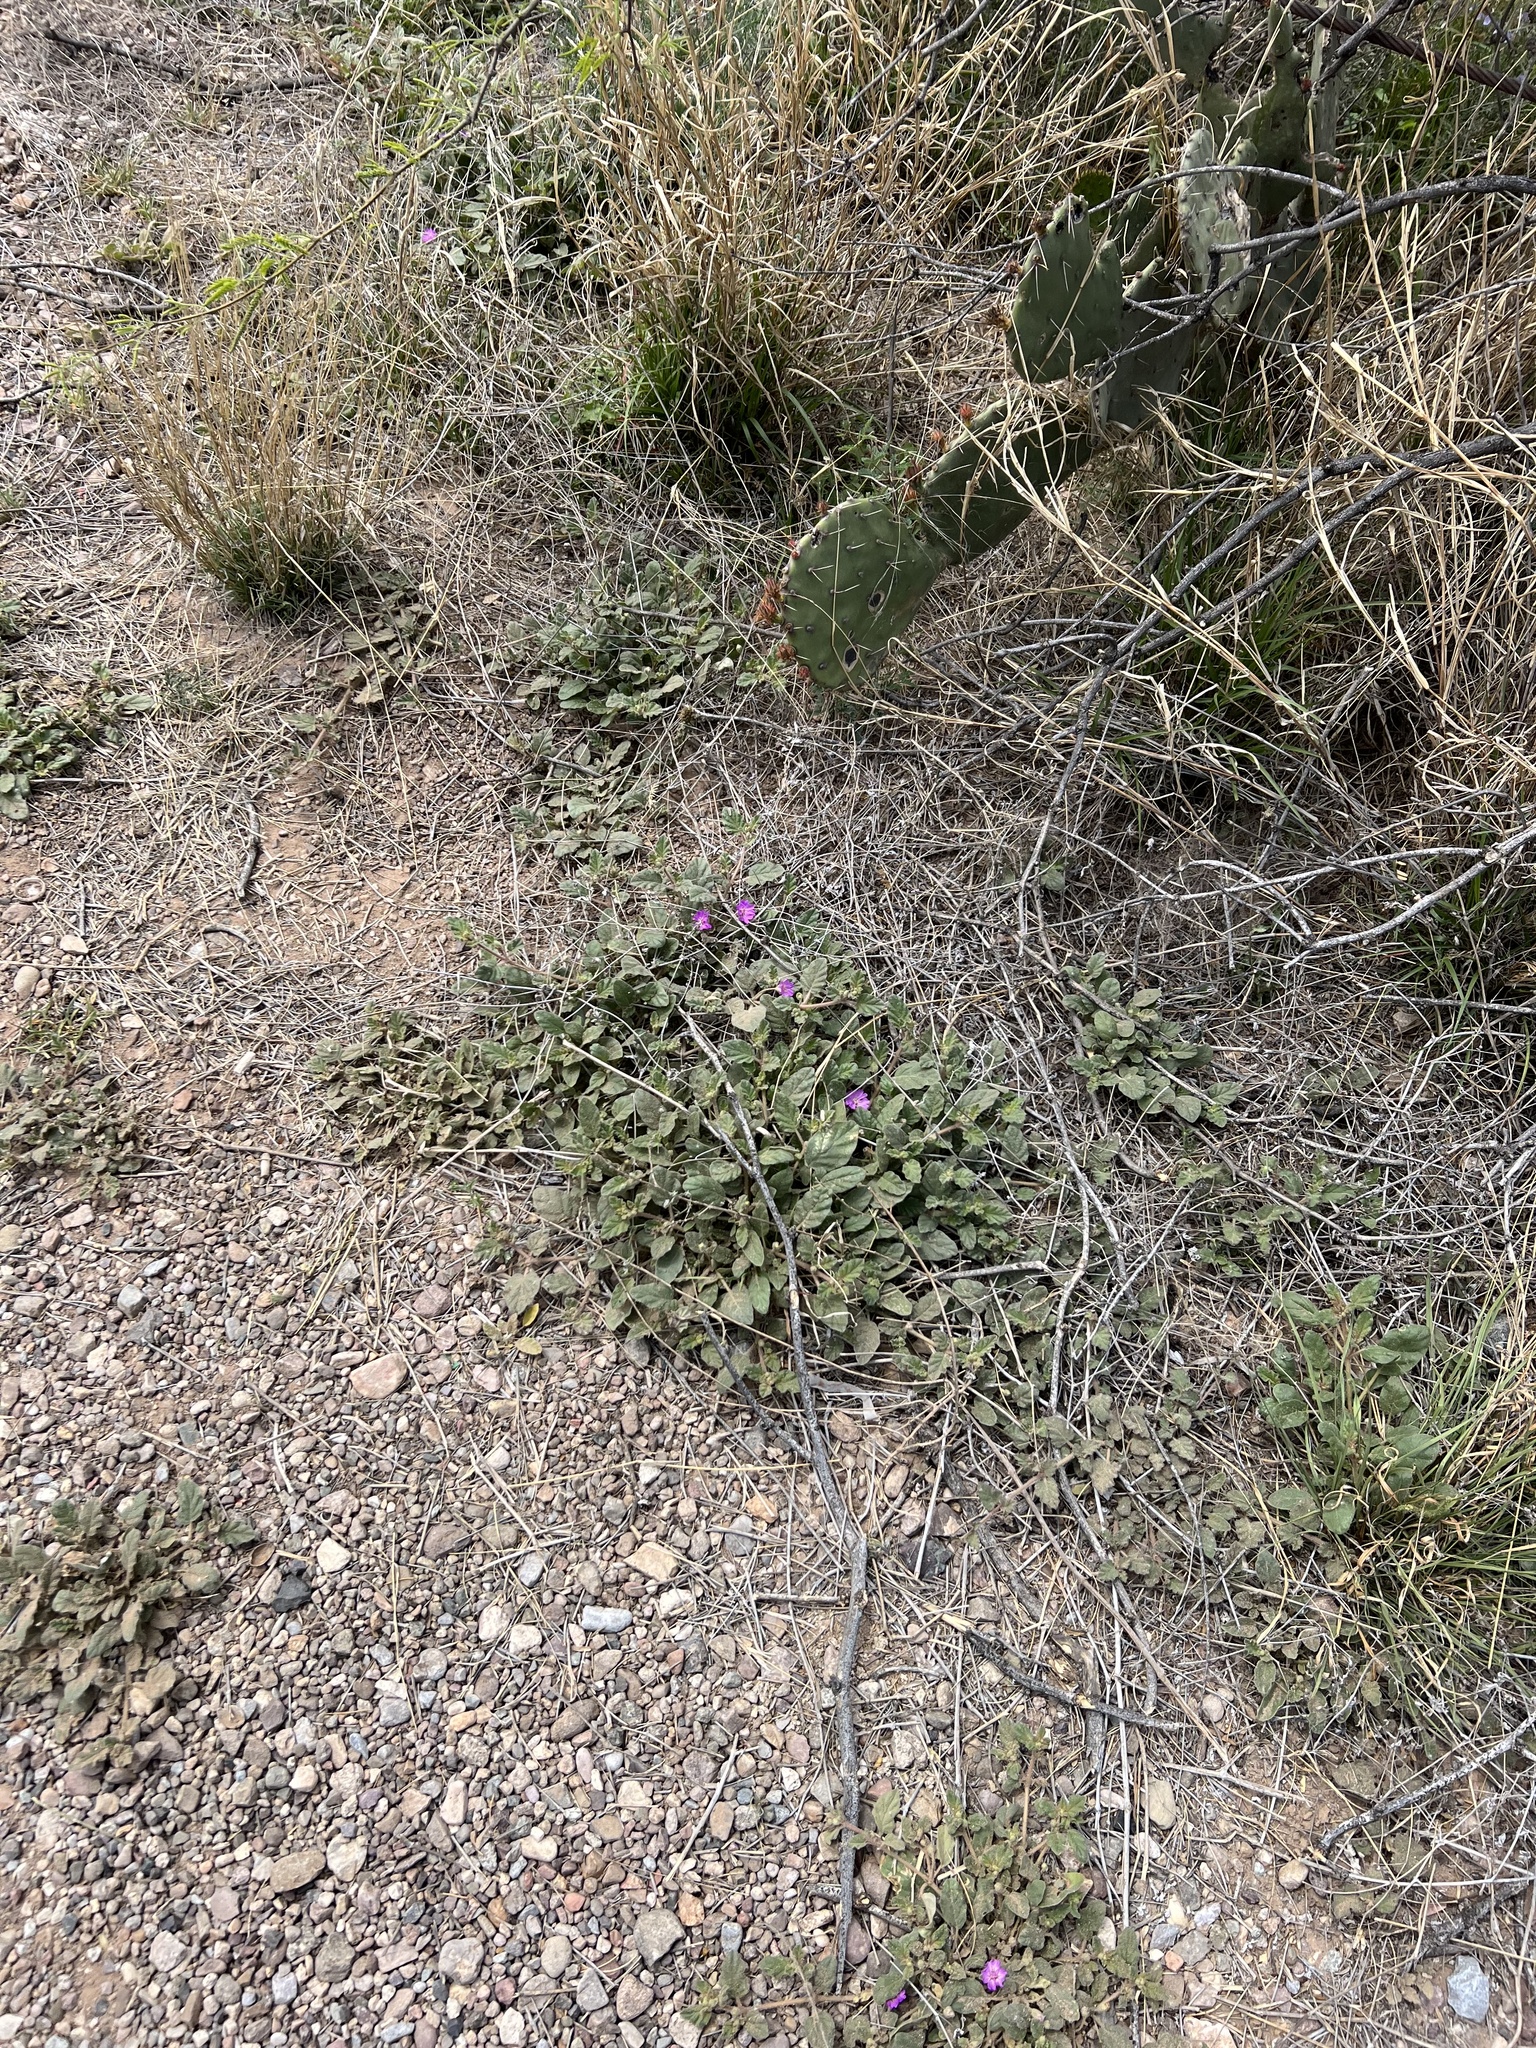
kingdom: Plantae
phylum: Tracheophyta
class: Magnoliopsida
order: Caryophyllales
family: Nyctaginaceae
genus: Allionia
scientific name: Allionia incarnata
